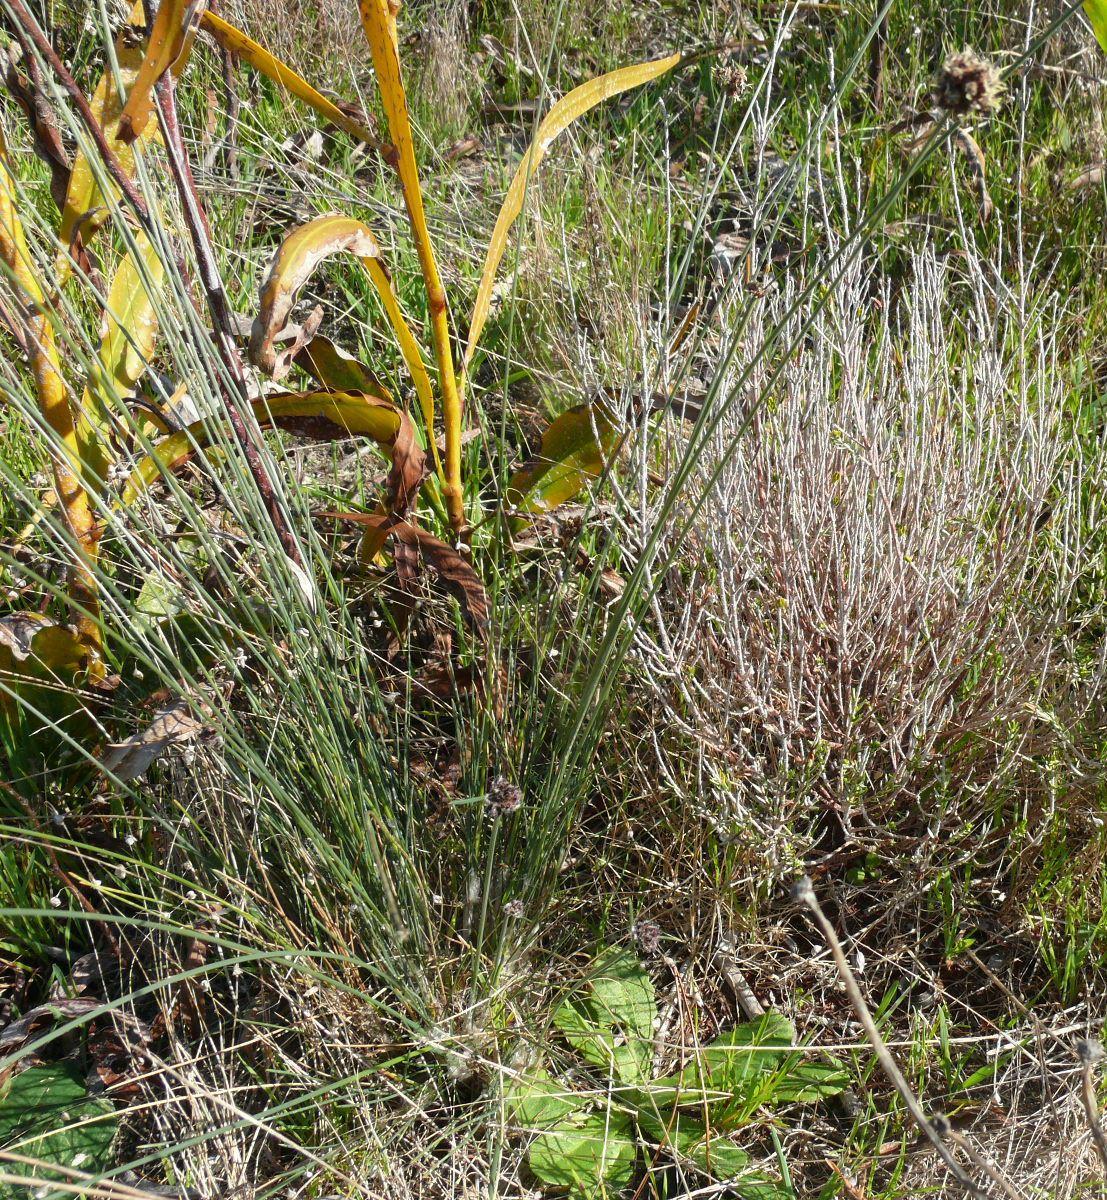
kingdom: Plantae
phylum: Tracheophyta
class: Magnoliopsida
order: Fabales
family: Fabaceae
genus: Acacia
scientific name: Acacia saligna
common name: Orange wattle
